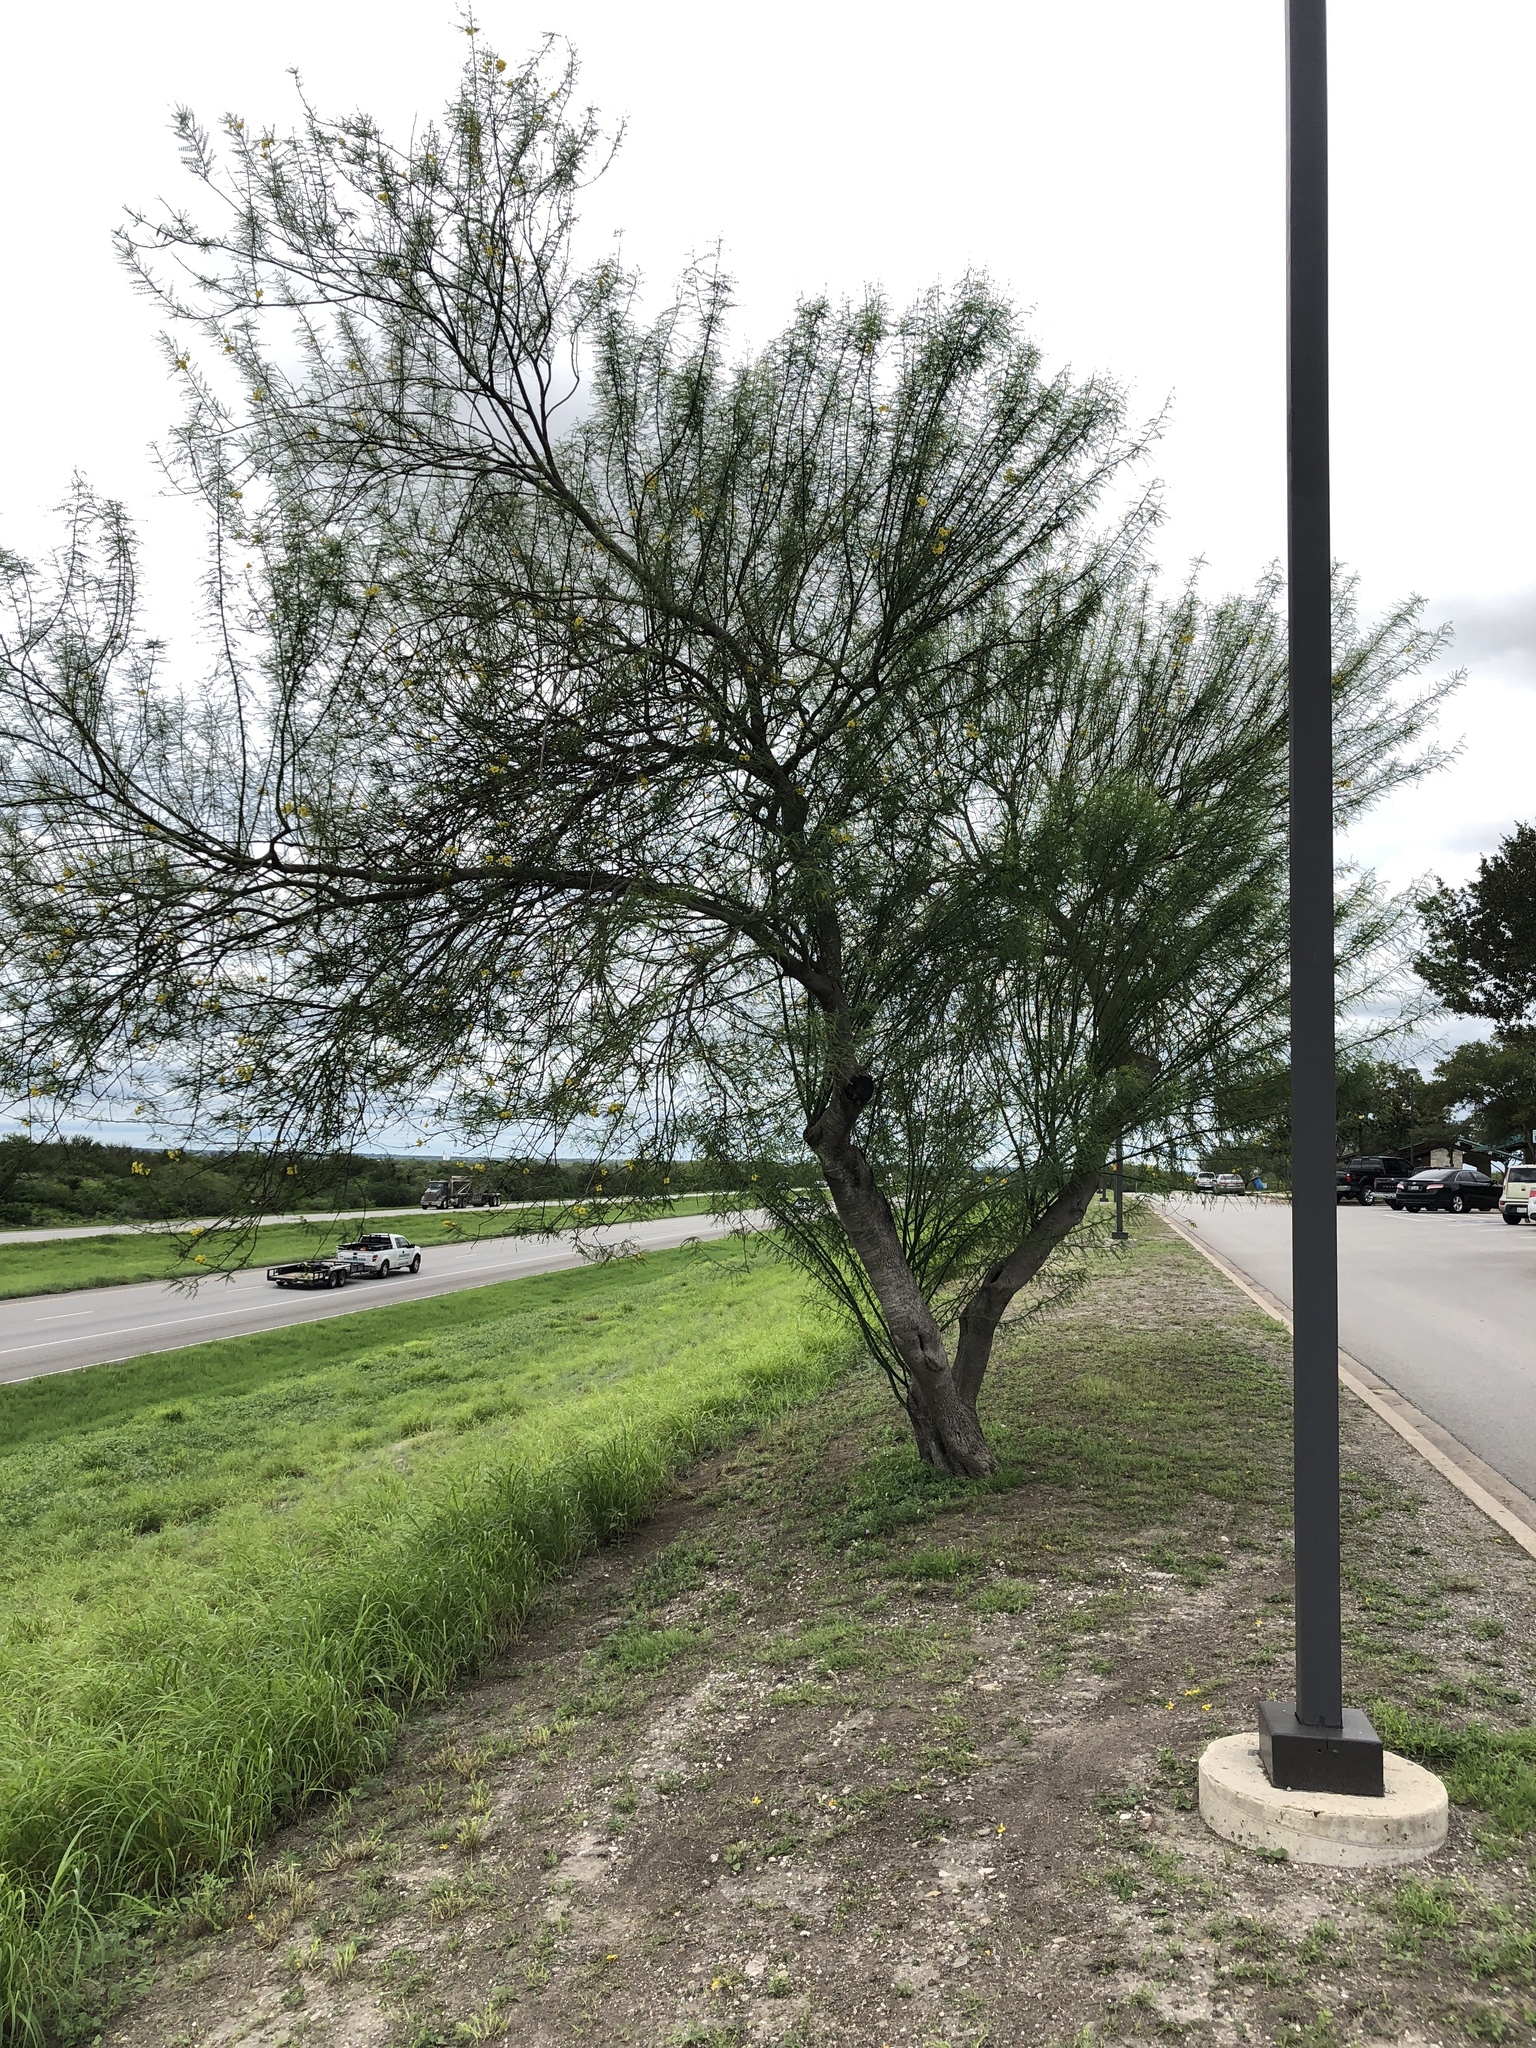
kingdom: Plantae
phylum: Tracheophyta
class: Magnoliopsida
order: Fabales
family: Fabaceae
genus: Parkinsonia
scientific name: Parkinsonia aculeata
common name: Jerusalem thorn
